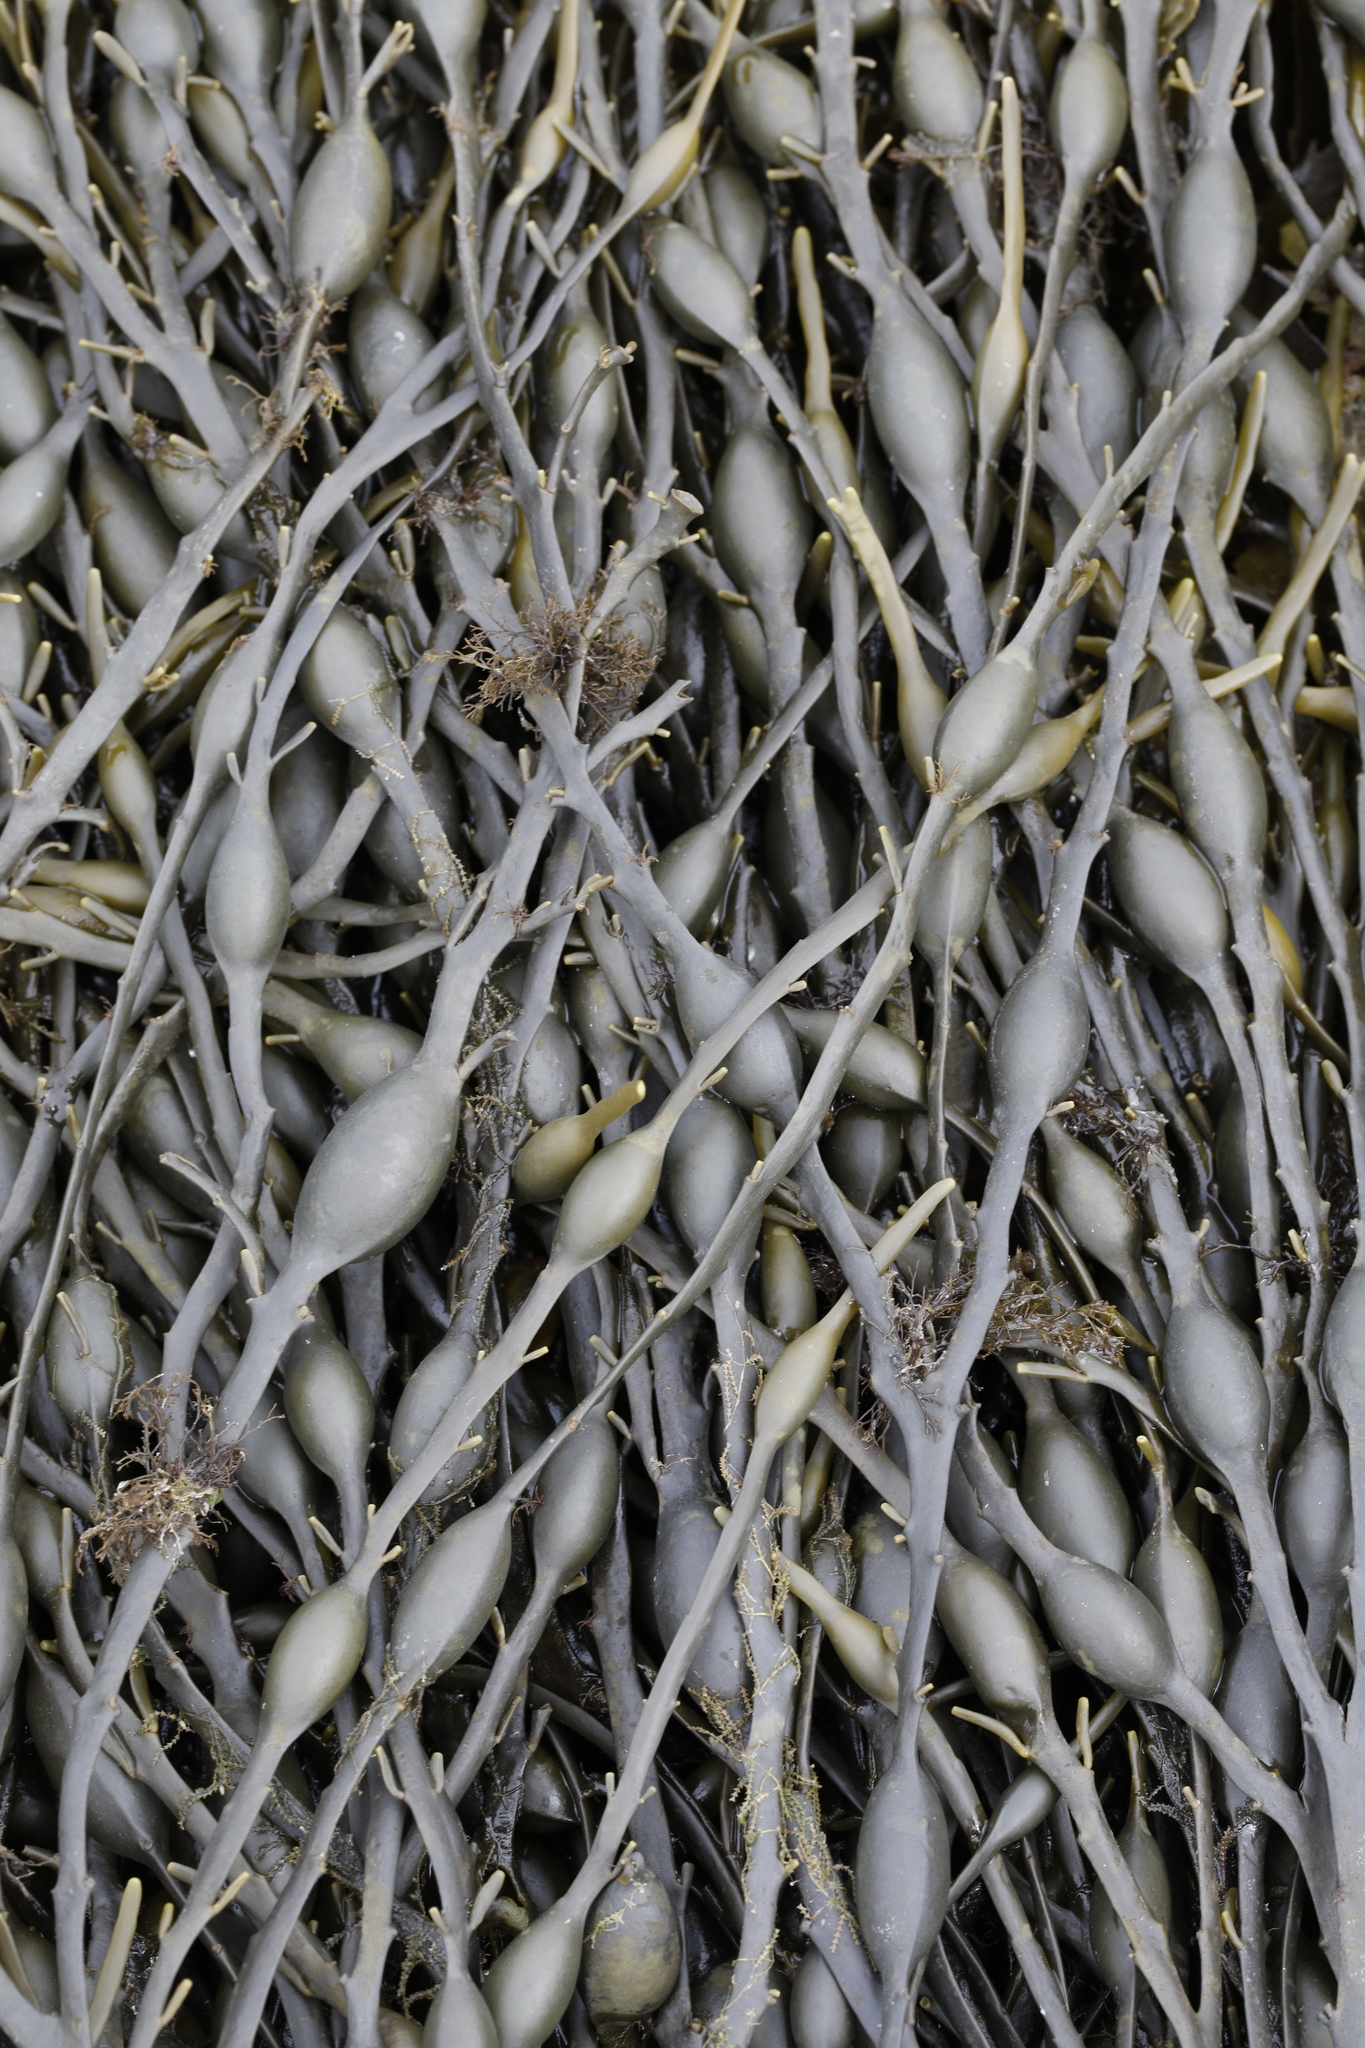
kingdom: Chromista
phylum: Ochrophyta
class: Phaeophyceae
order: Fucales
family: Fucaceae
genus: Ascophyllum
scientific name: Ascophyllum nodosum
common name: Knotted wrack
